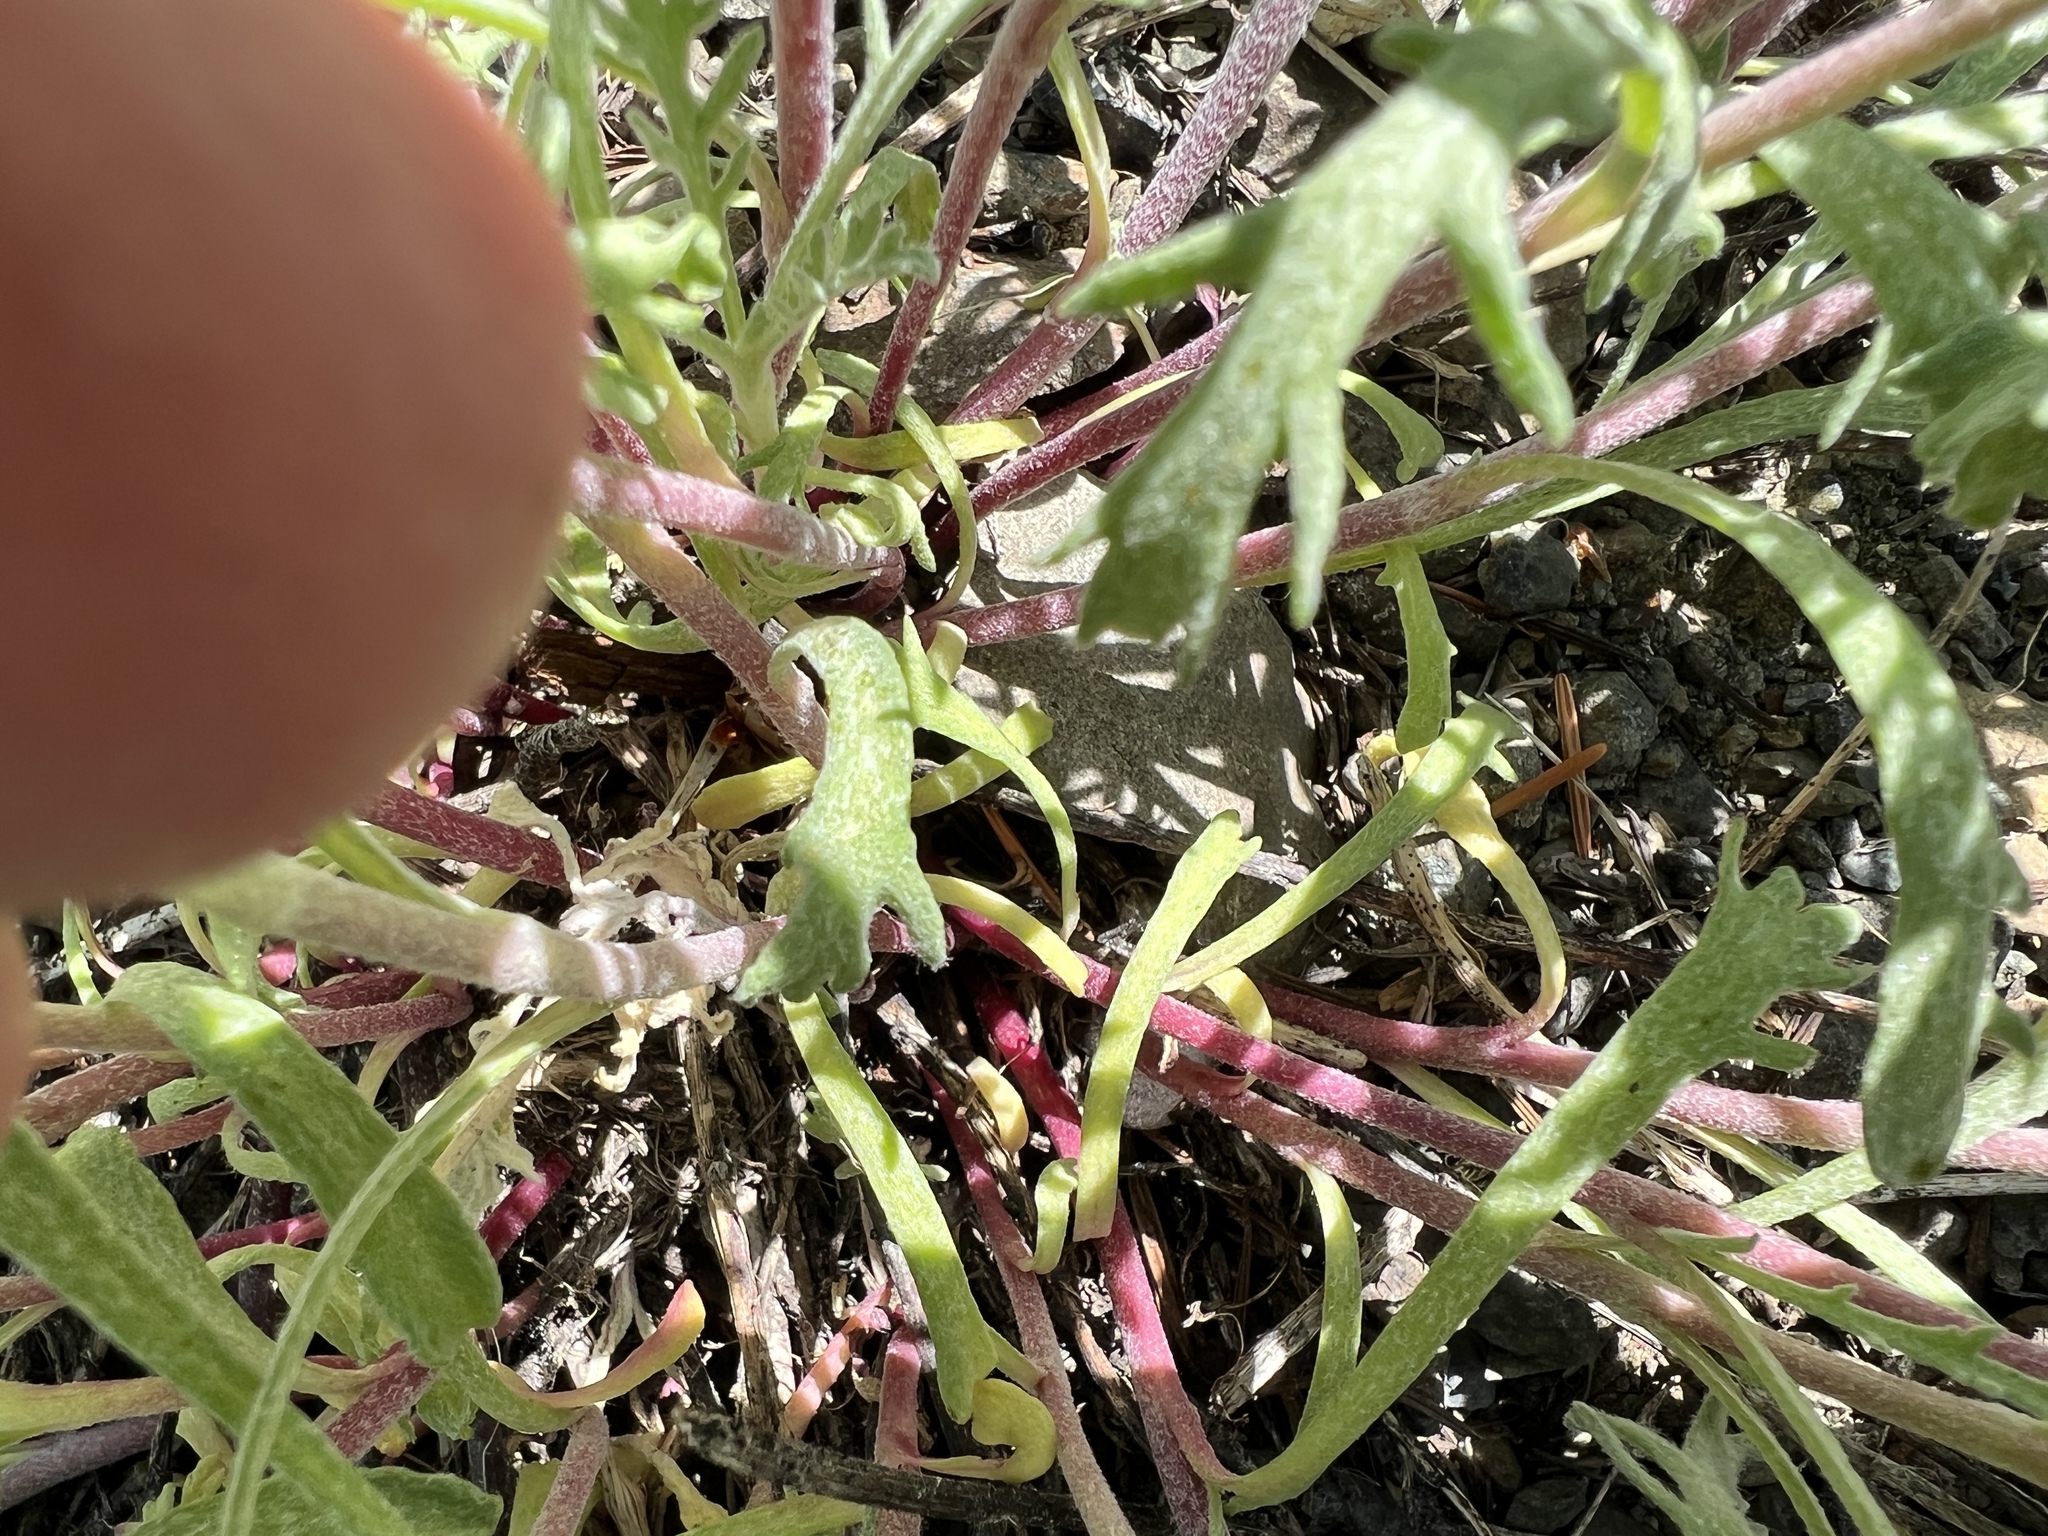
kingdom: Plantae
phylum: Tracheophyta
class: Magnoliopsida
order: Asterales
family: Asteraceae
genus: Chaenactis
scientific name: Chaenactis thompsonii
